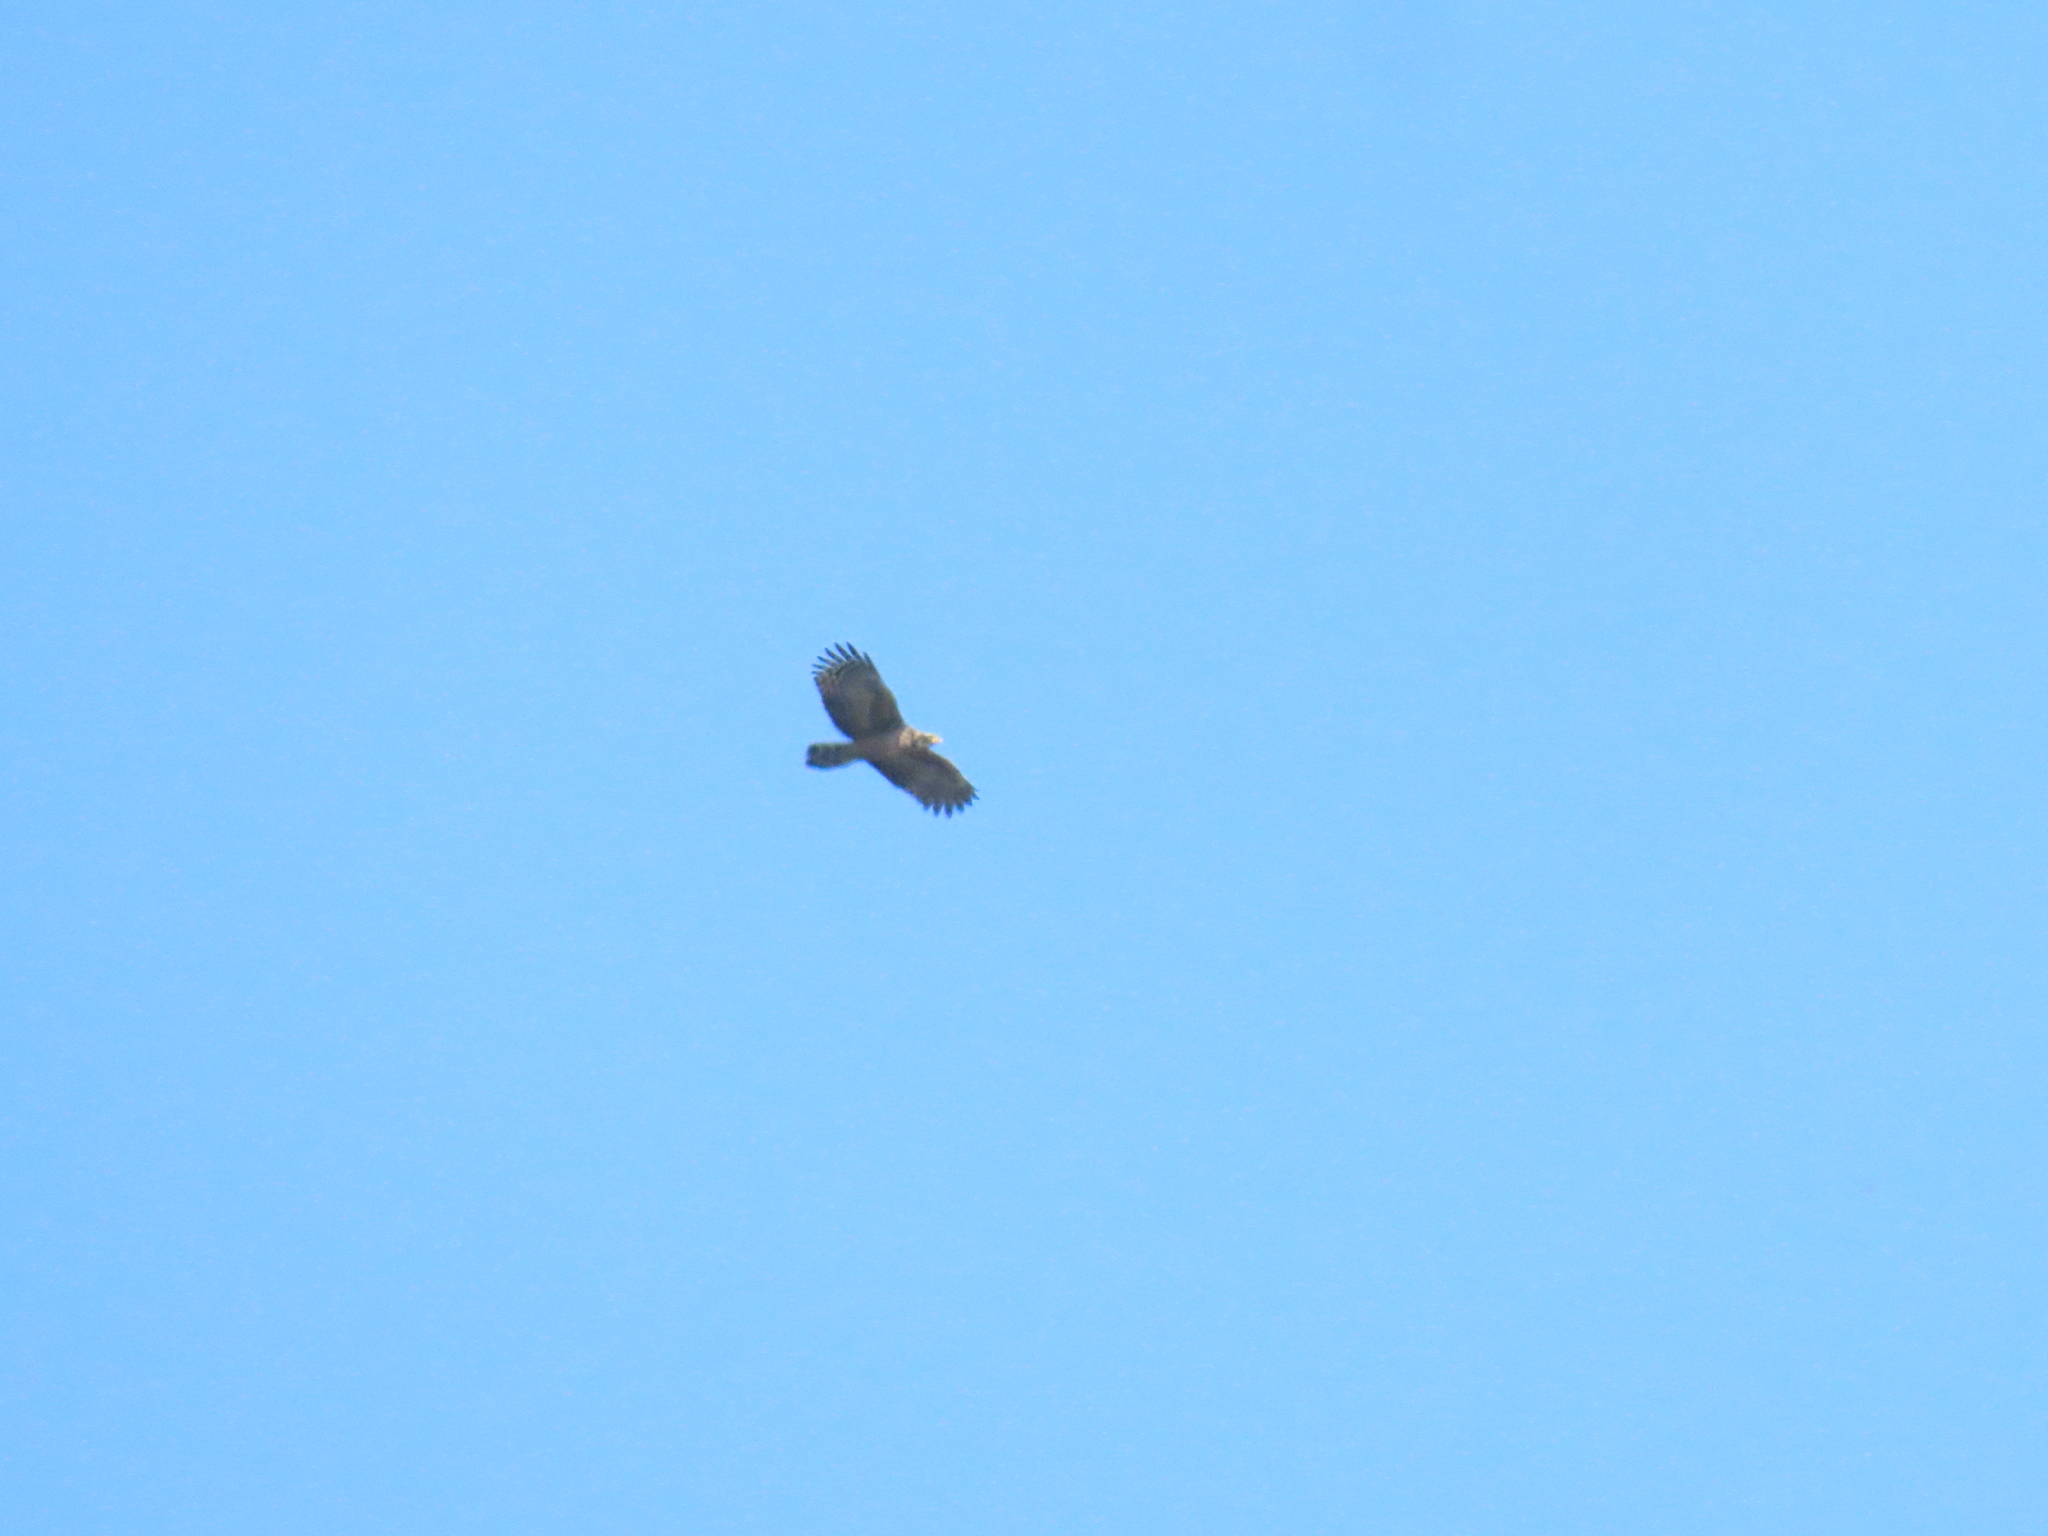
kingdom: Animalia
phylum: Chordata
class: Aves
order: Accipitriformes
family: Accipitridae
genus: Spilornis
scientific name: Spilornis cheela
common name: Crested serpent eagle
